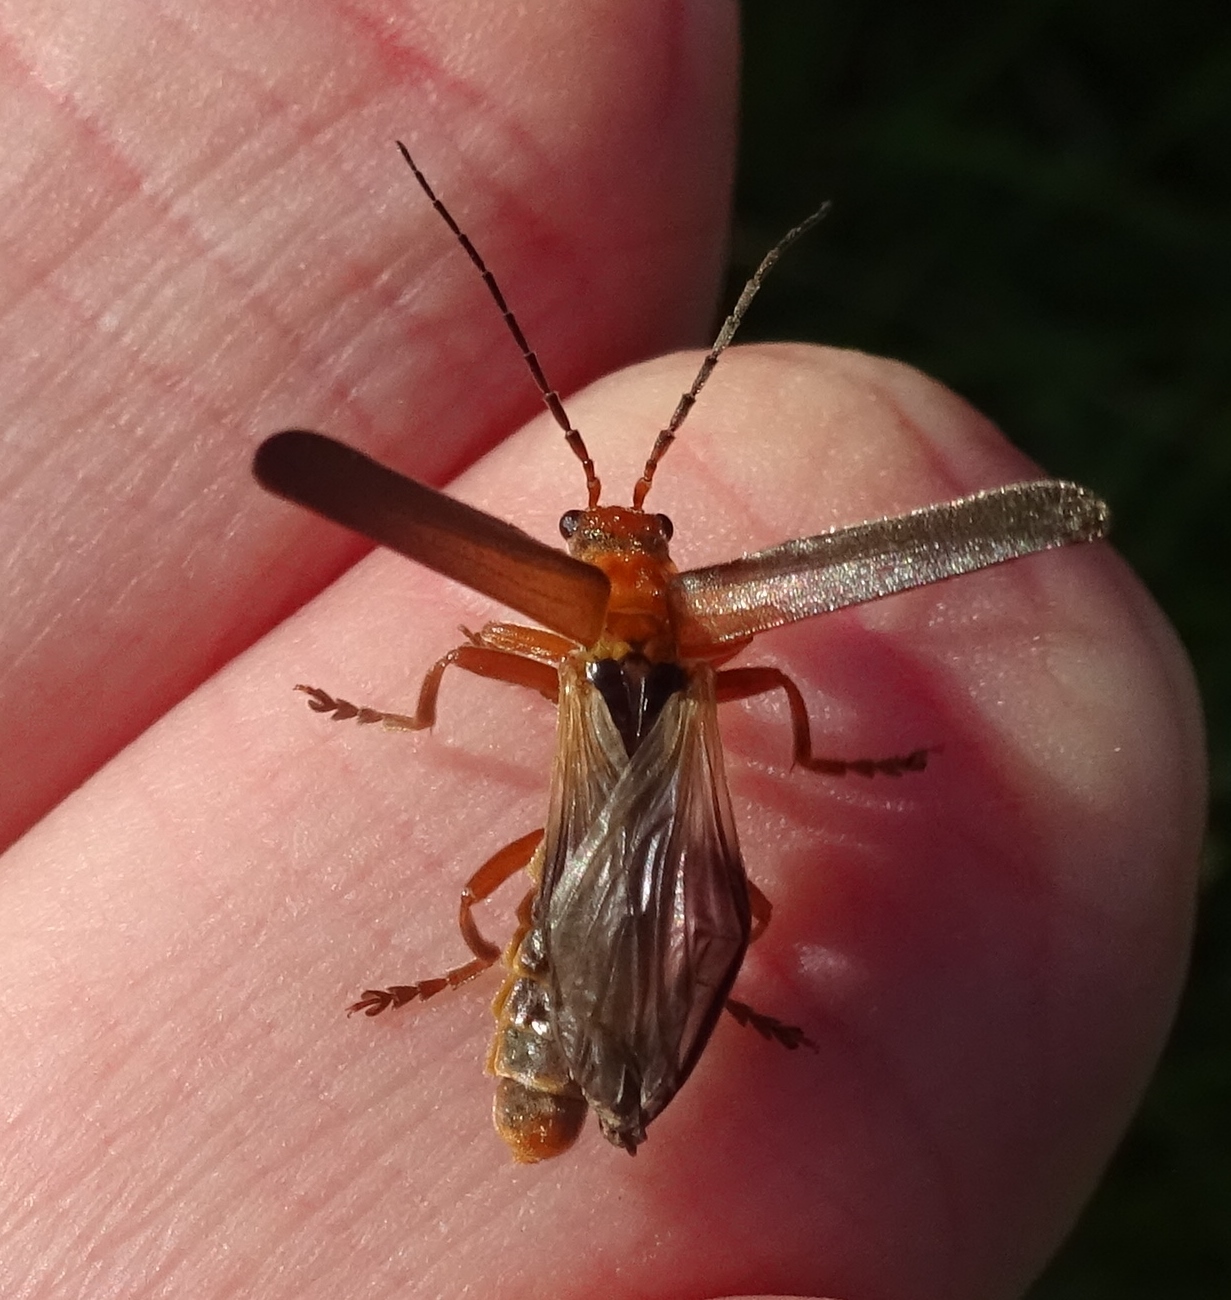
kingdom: Animalia
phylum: Arthropoda
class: Insecta
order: Coleoptera
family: Cantharidae
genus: Cantharis
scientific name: Cantharis rufa
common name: Red-spotted soldier beetle
